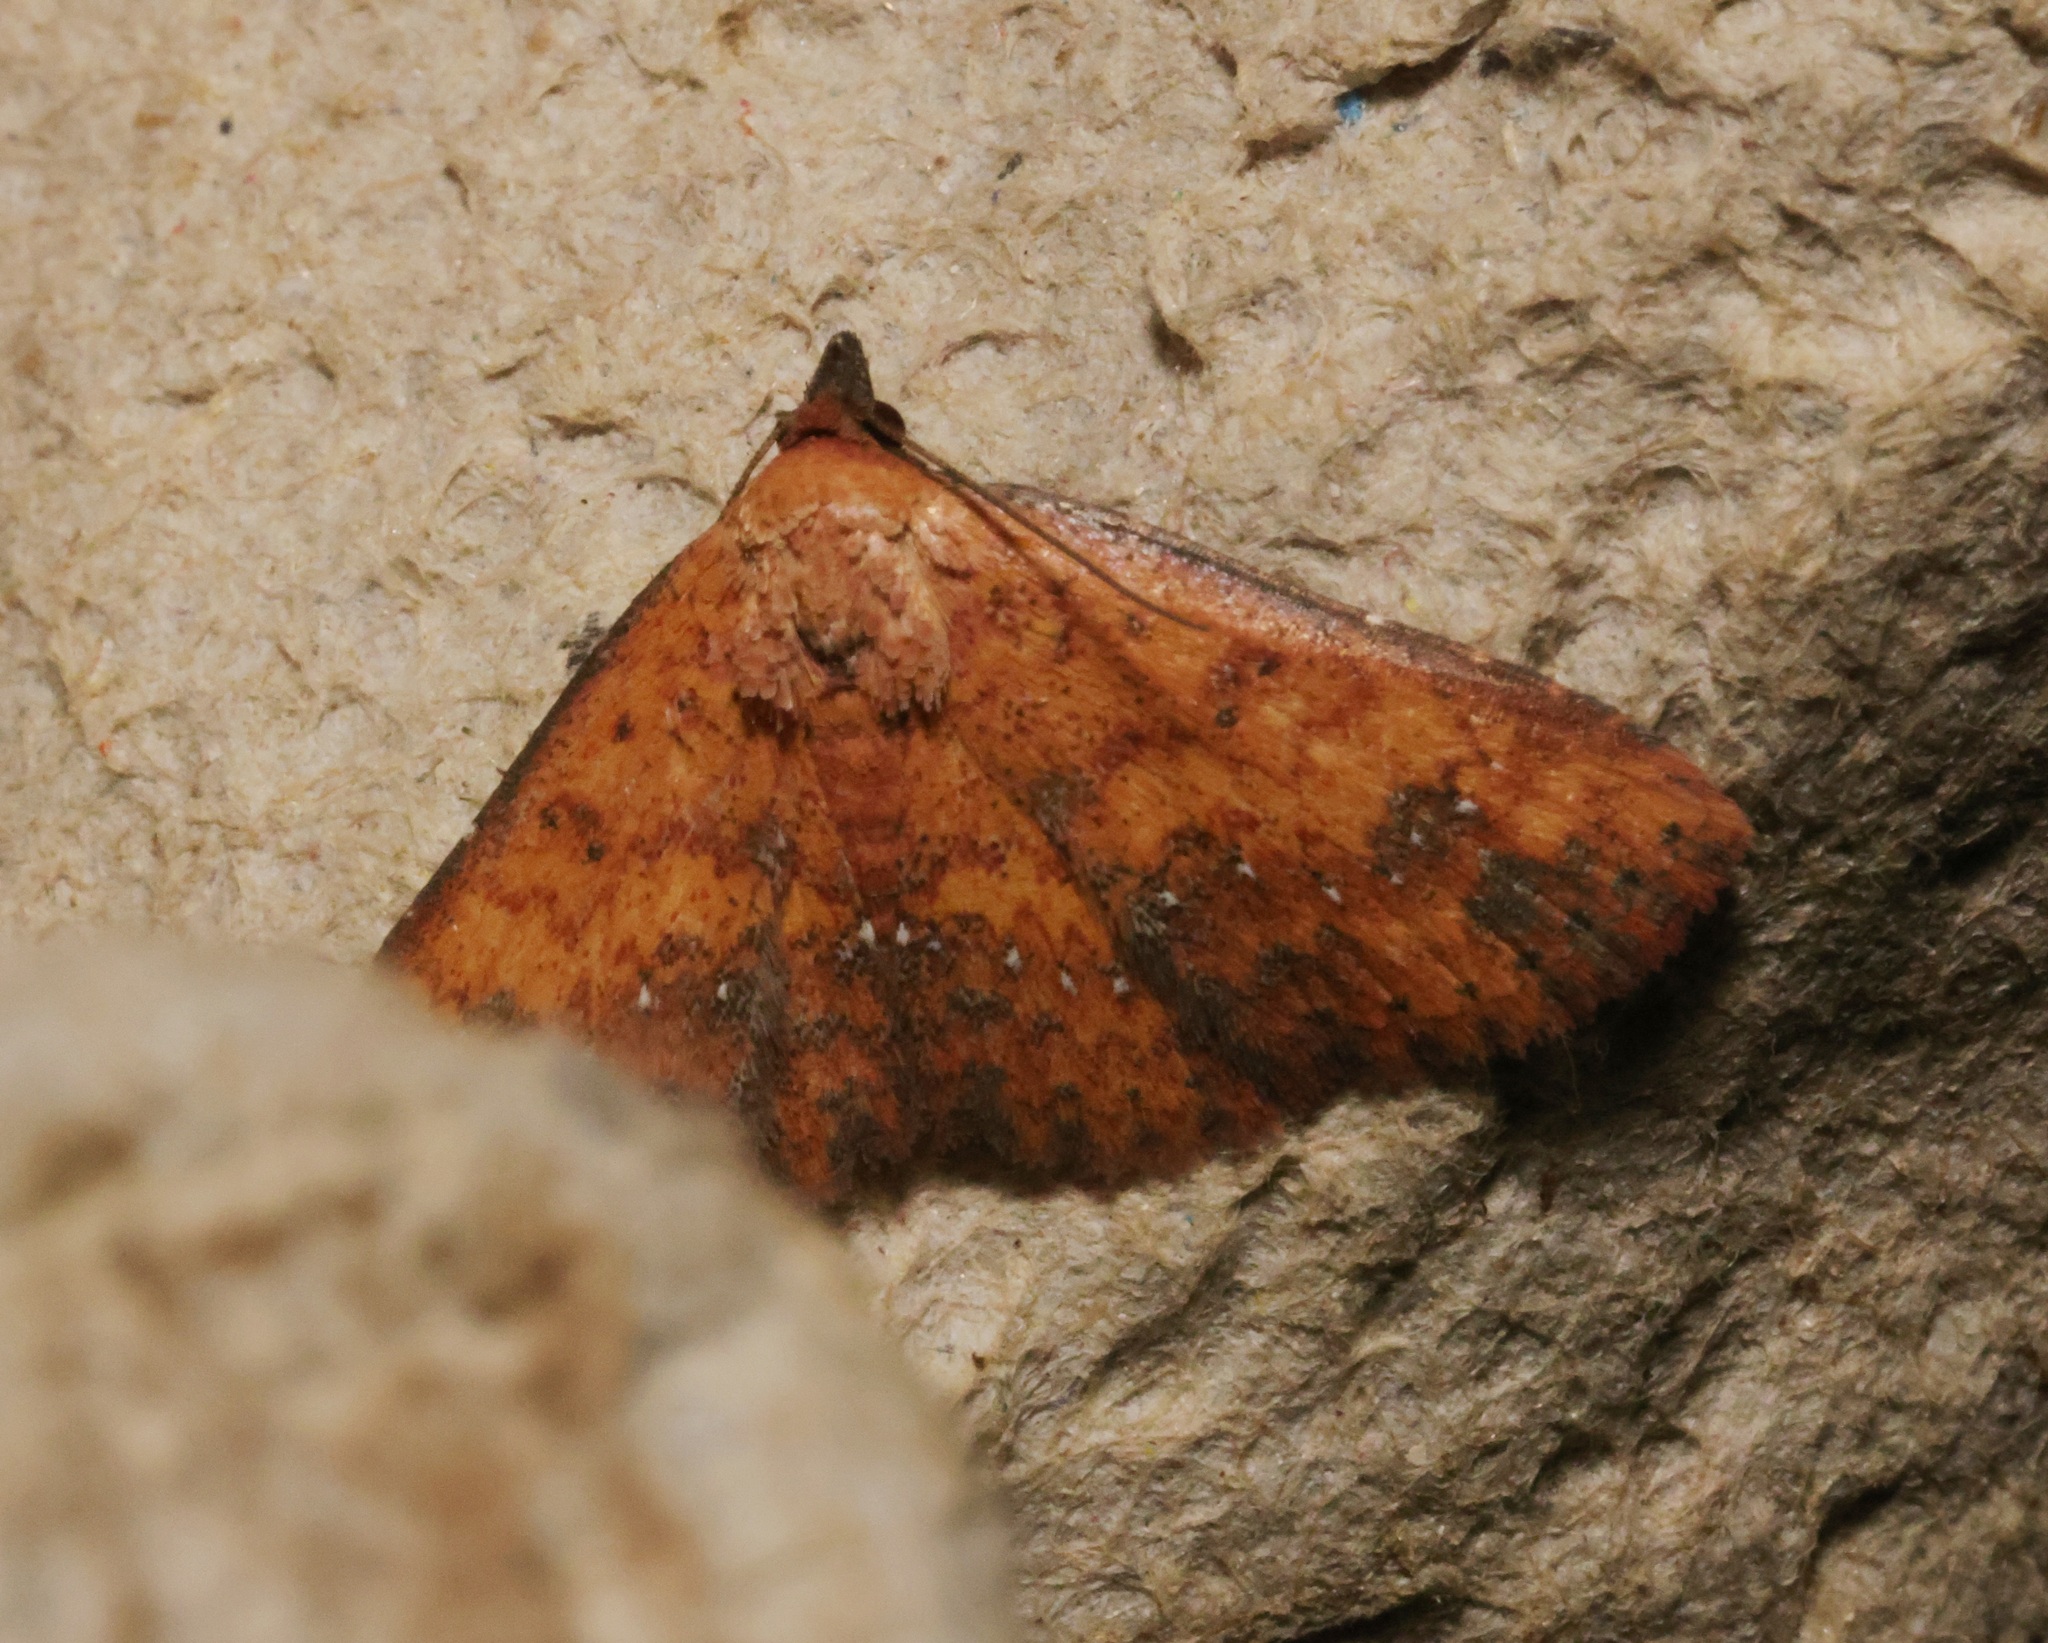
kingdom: Animalia
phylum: Arthropoda
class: Insecta
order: Lepidoptera
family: Noctuidae
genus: Cerynea
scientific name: Cerynea ustula
